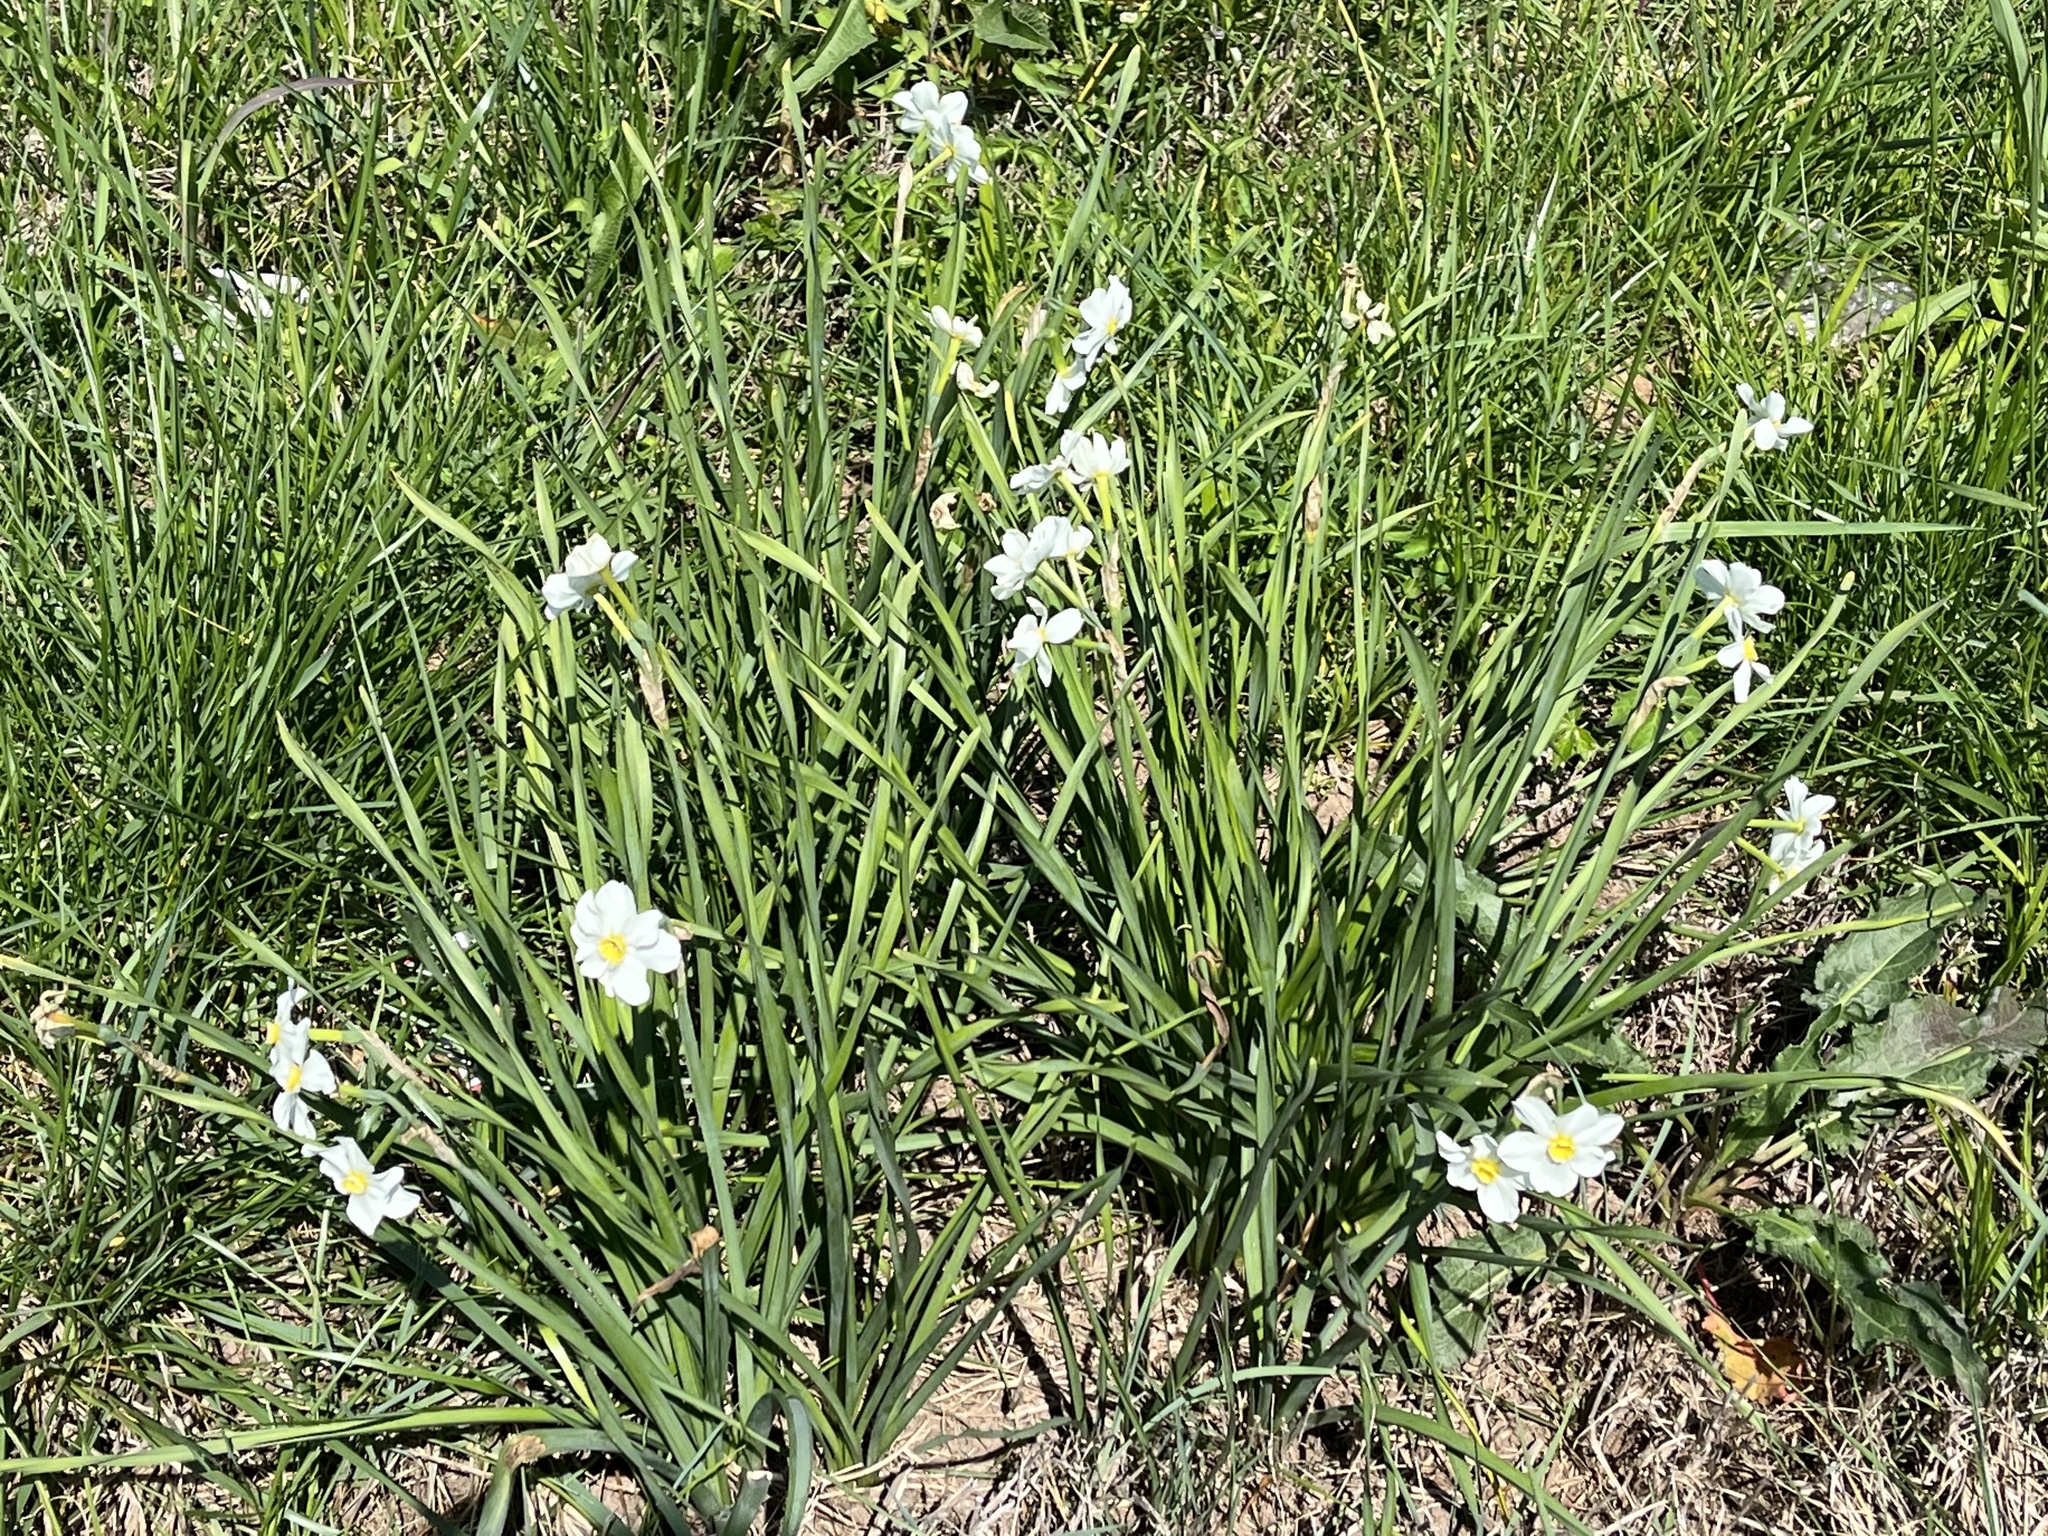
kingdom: Plantae
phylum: Tracheophyta
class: Liliopsida
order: Asparagales
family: Amaryllidaceae
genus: Narcissus
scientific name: Narcissus poeticus
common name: Pheasant's-eye daffodil
